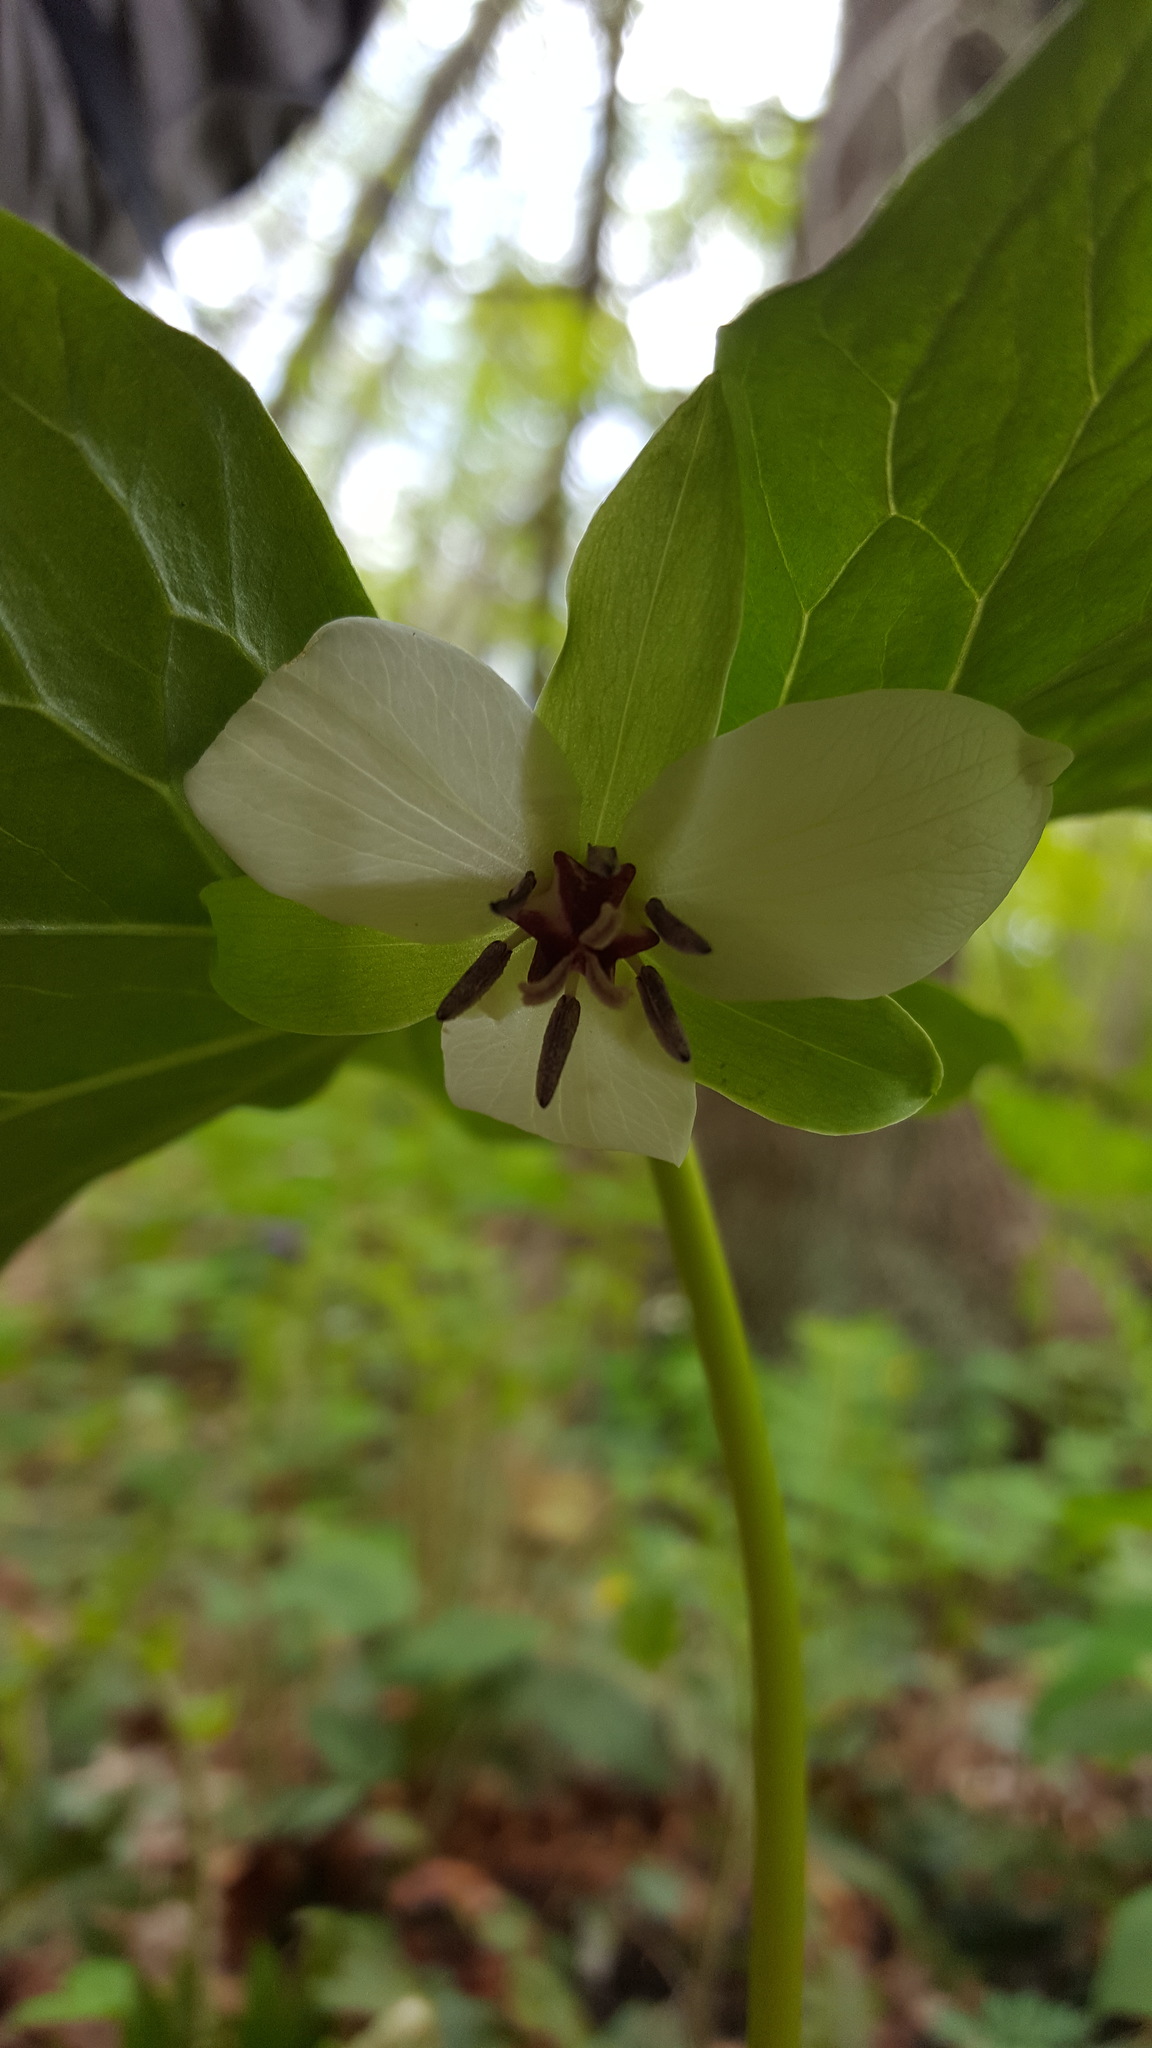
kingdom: Plantae
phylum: Tracheophyta
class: Liliopsida
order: Liliales
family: Melanthiaceae
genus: Trillium
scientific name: Trillium rugelii
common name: Ill-scented trillium
